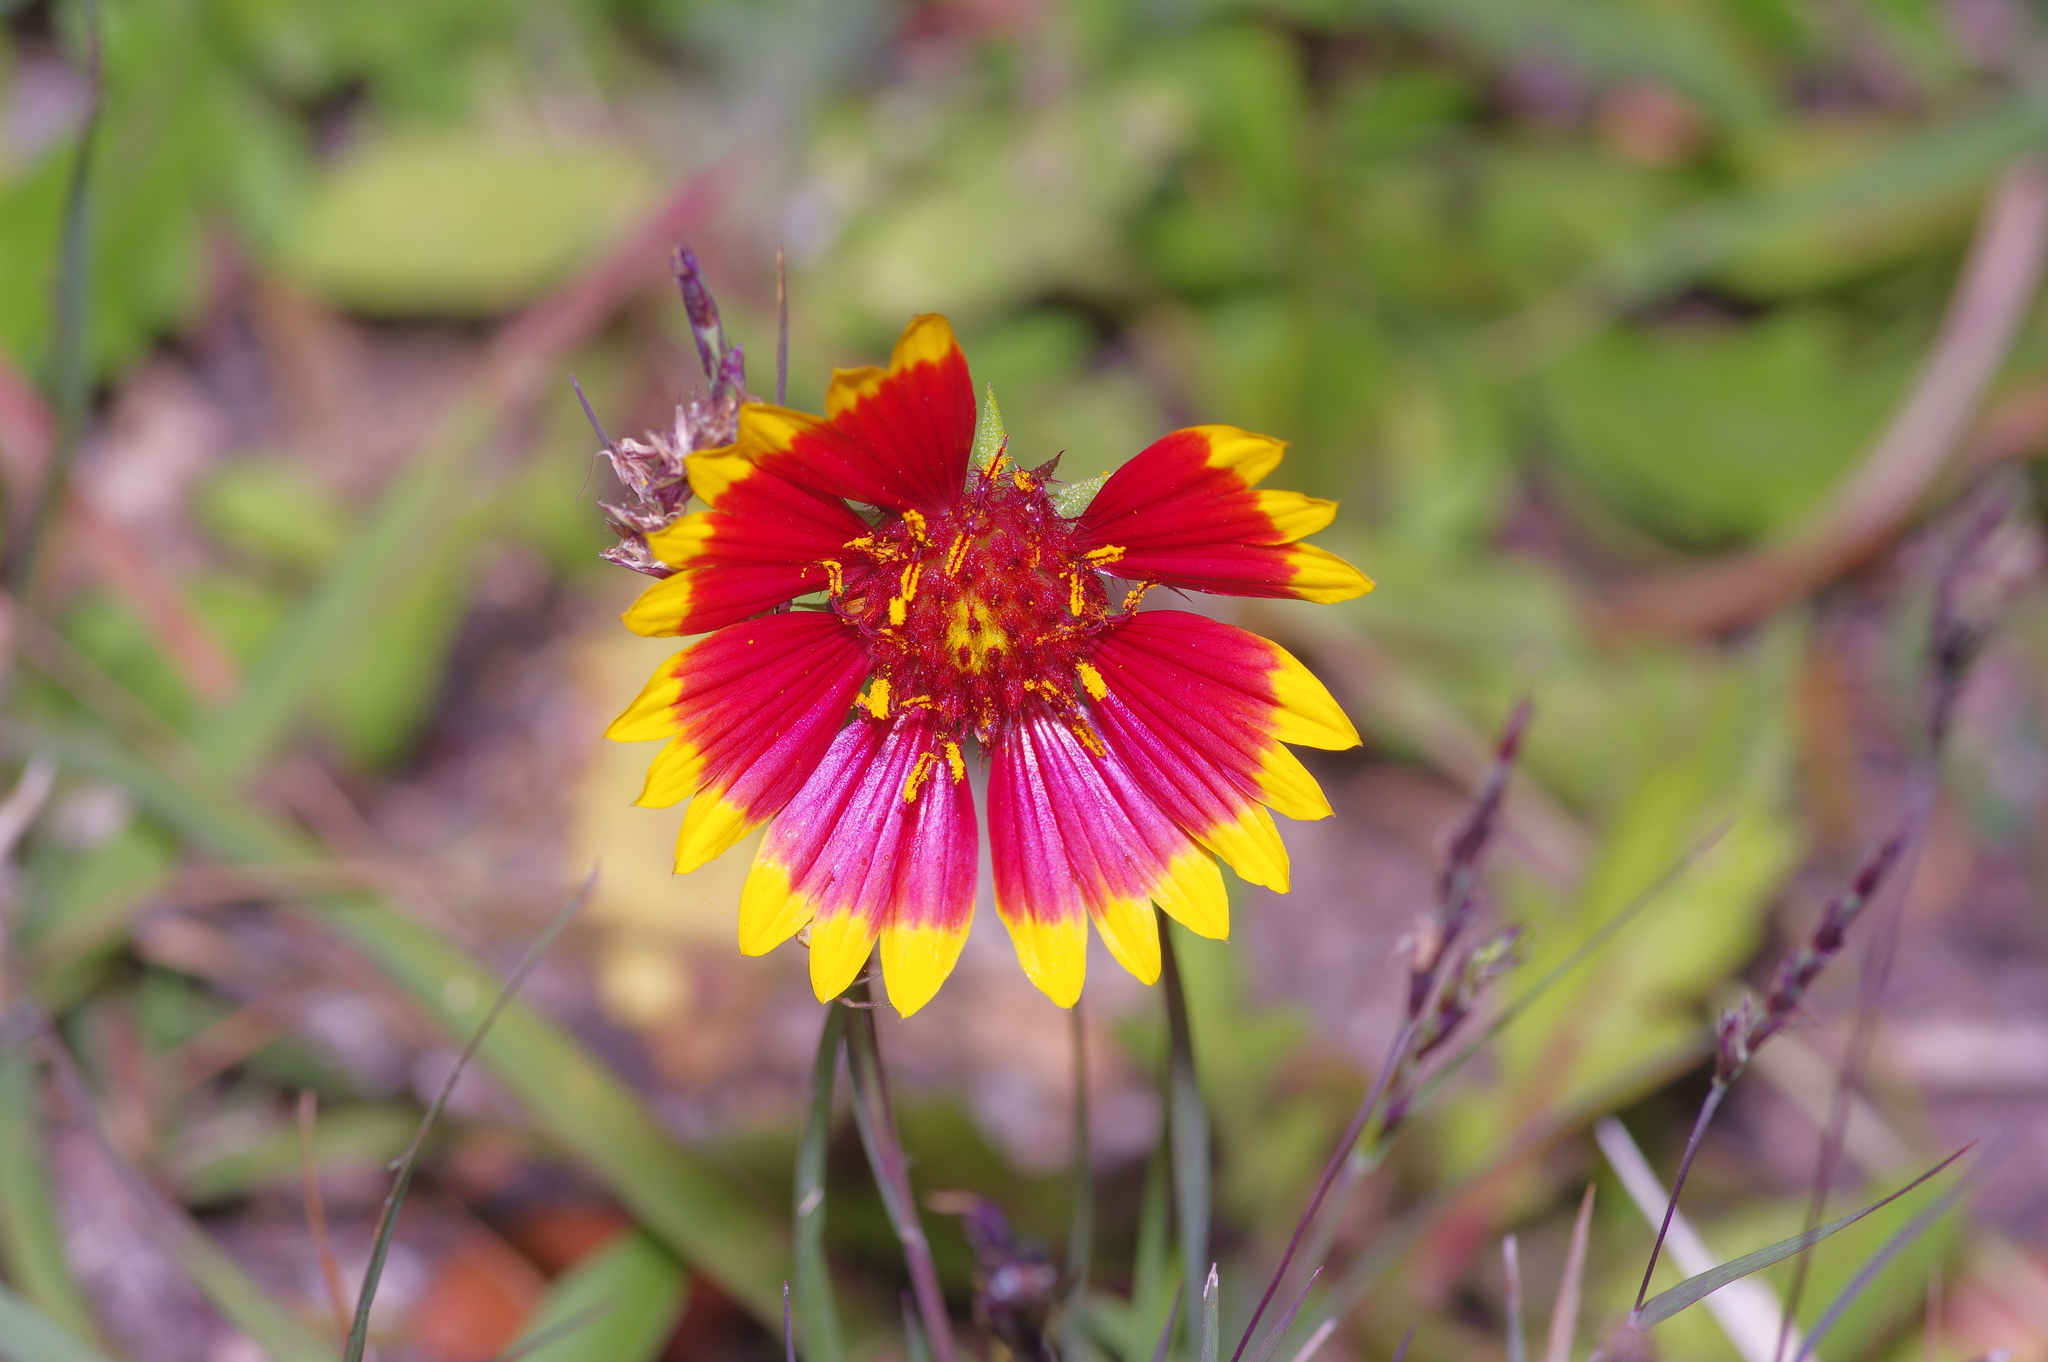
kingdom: Plantae
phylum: Tracheophyta
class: Magnoliopsida
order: Asterales
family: Asteraceae
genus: Gaillardia
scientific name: Gaillardia pulchella
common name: Firewheel
